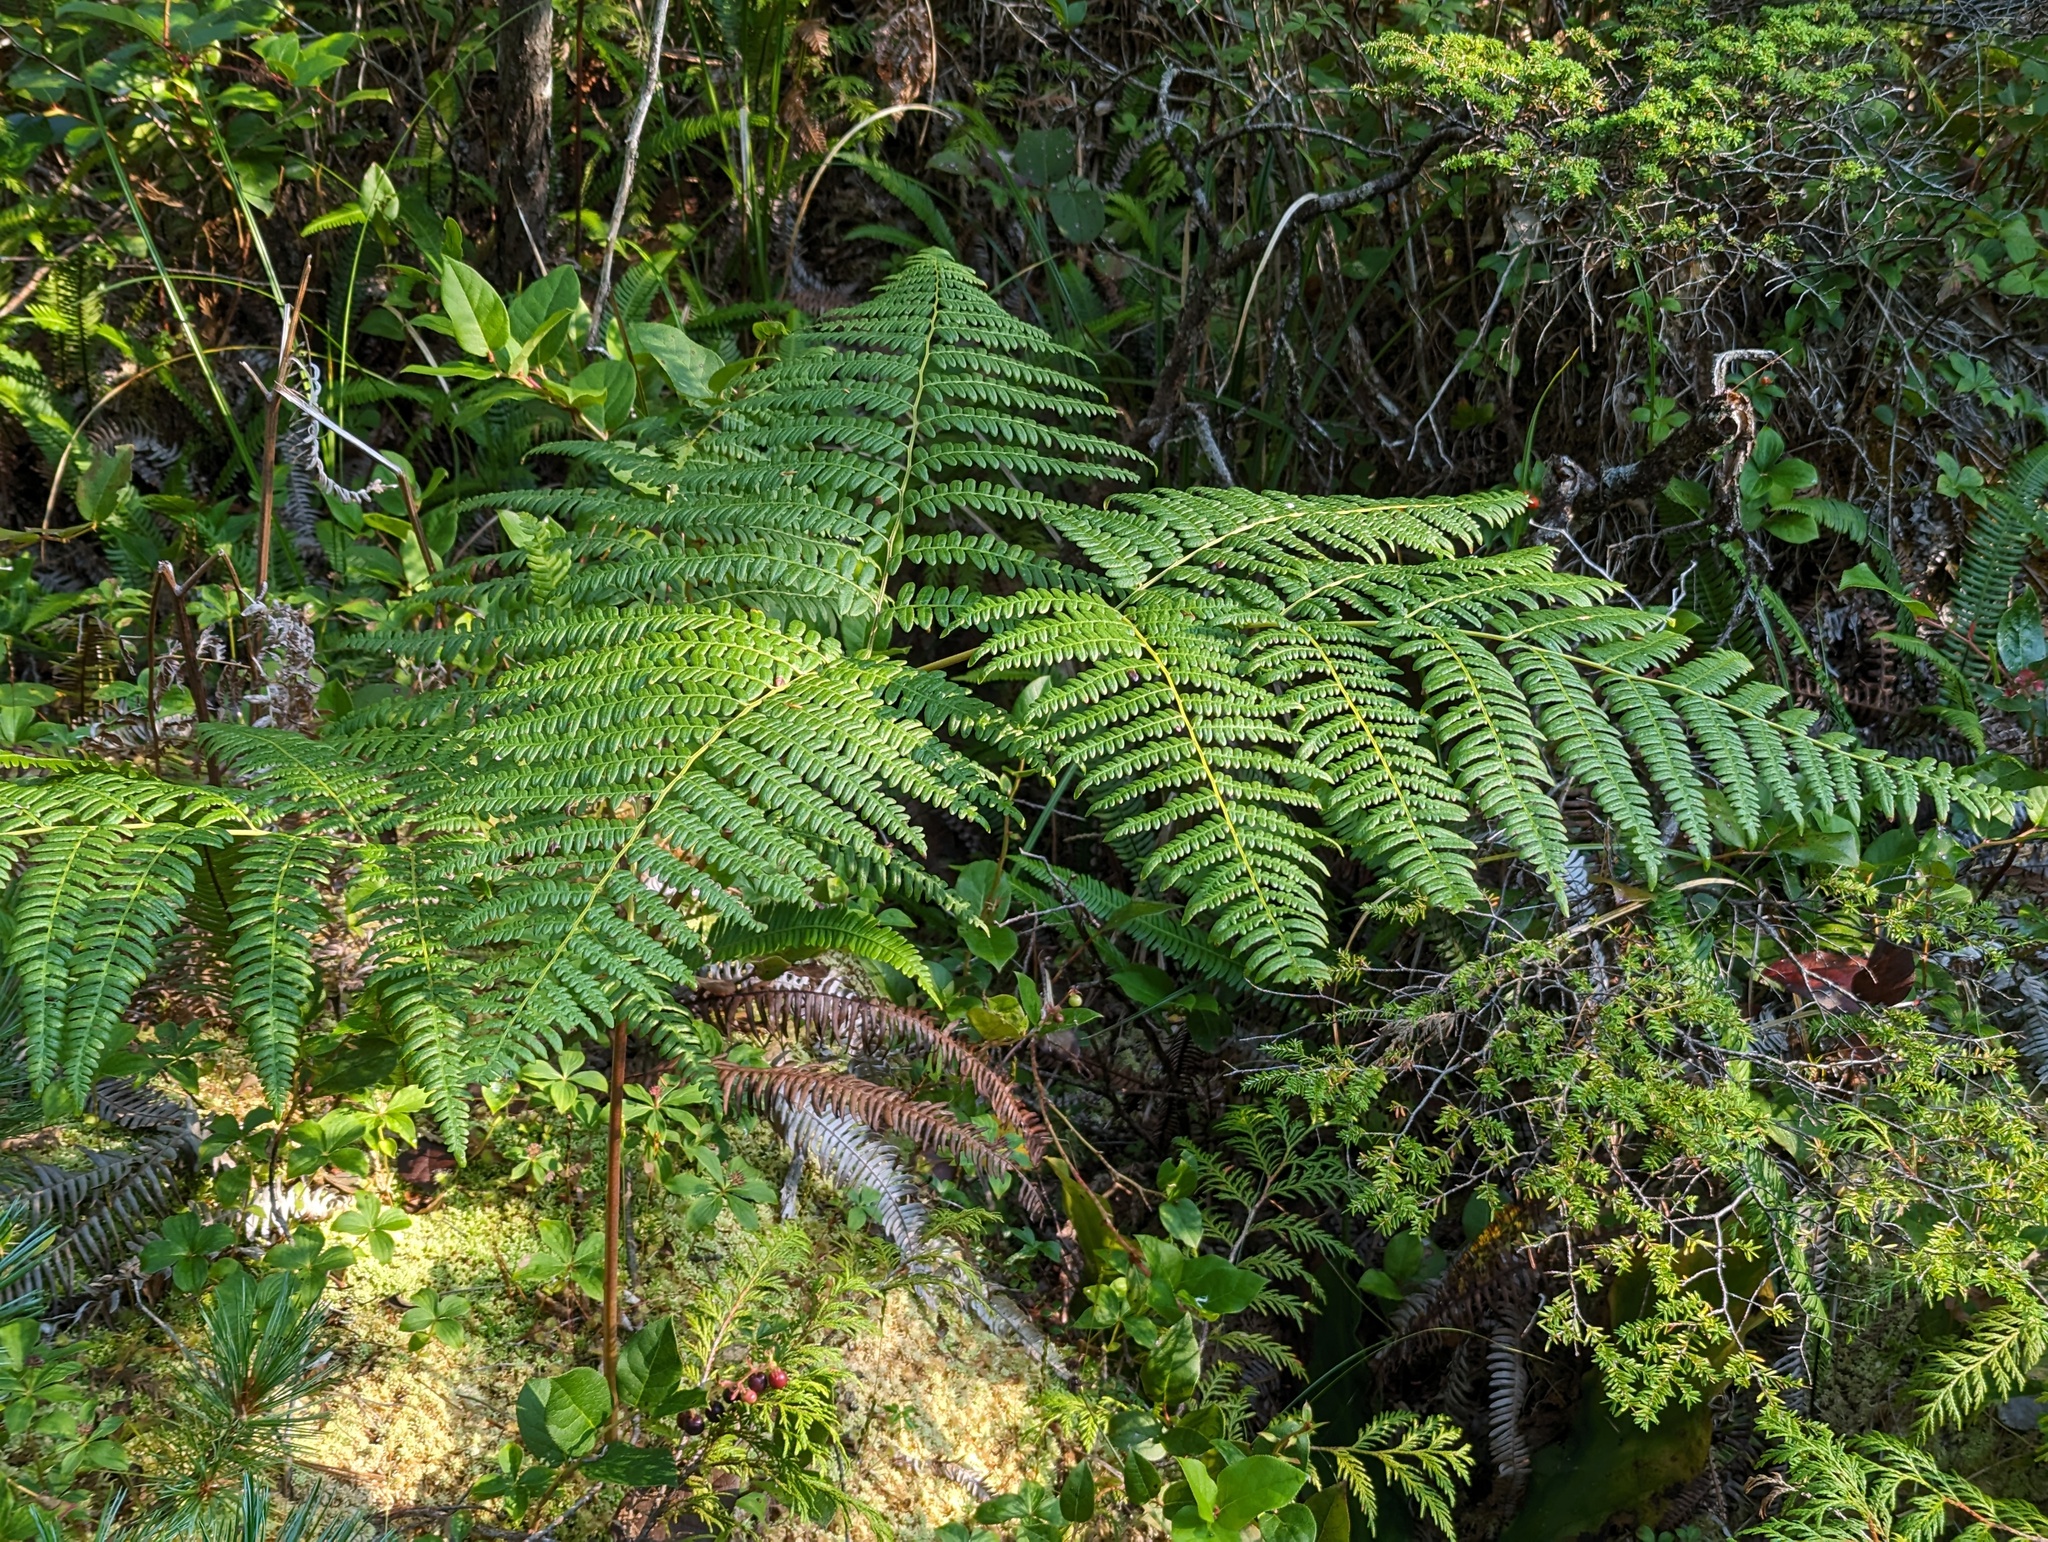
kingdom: Plantae
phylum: Tracheophyta
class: Polypodiopsida
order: Polypodiales
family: Dennstaedtiaceae
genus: Pteridium
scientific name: Pteridium aquilinum
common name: Bracken
